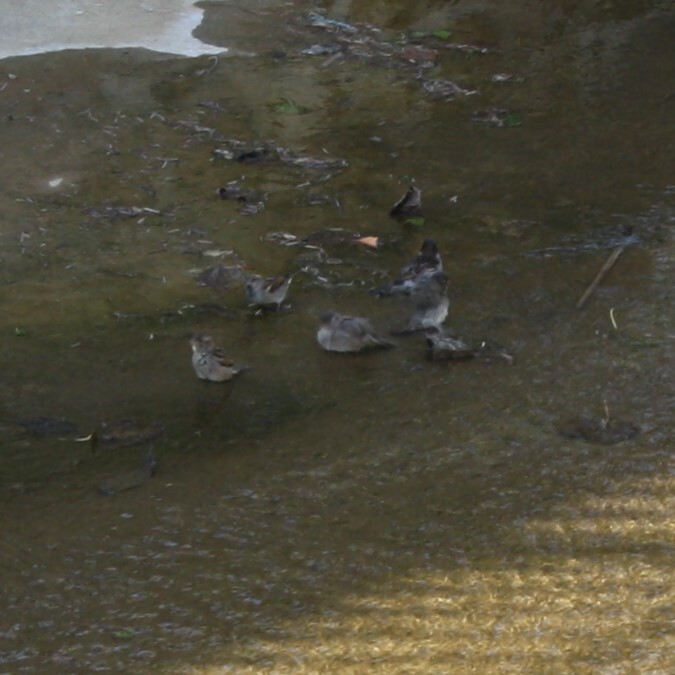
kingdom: Animalia
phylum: Chordata
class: Aves
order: Passeriformes
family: Passeridae
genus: Passer
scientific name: Passer domesticus
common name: House sparrow
